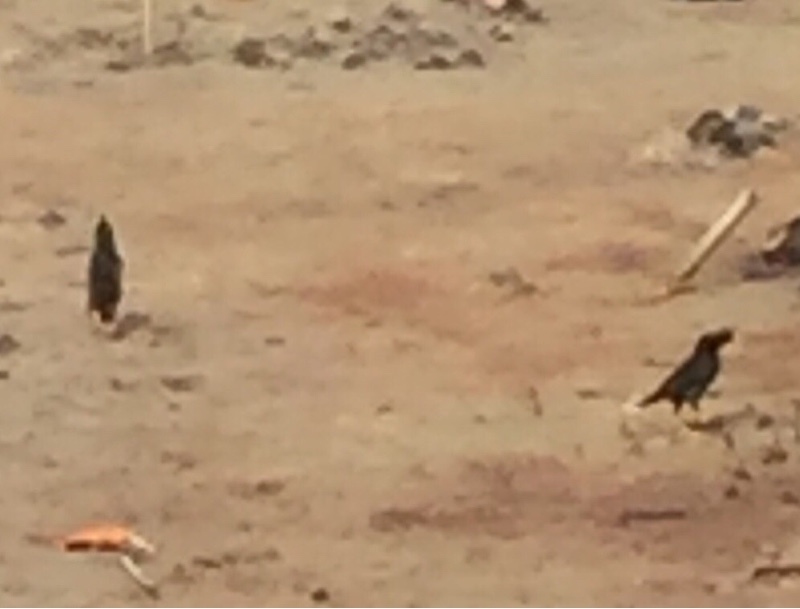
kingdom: Animalia
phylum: Chordata
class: Aves
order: Passeriformes
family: Sturnidae
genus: Acridotheres
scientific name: Acridotheres grandis
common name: Great myna
